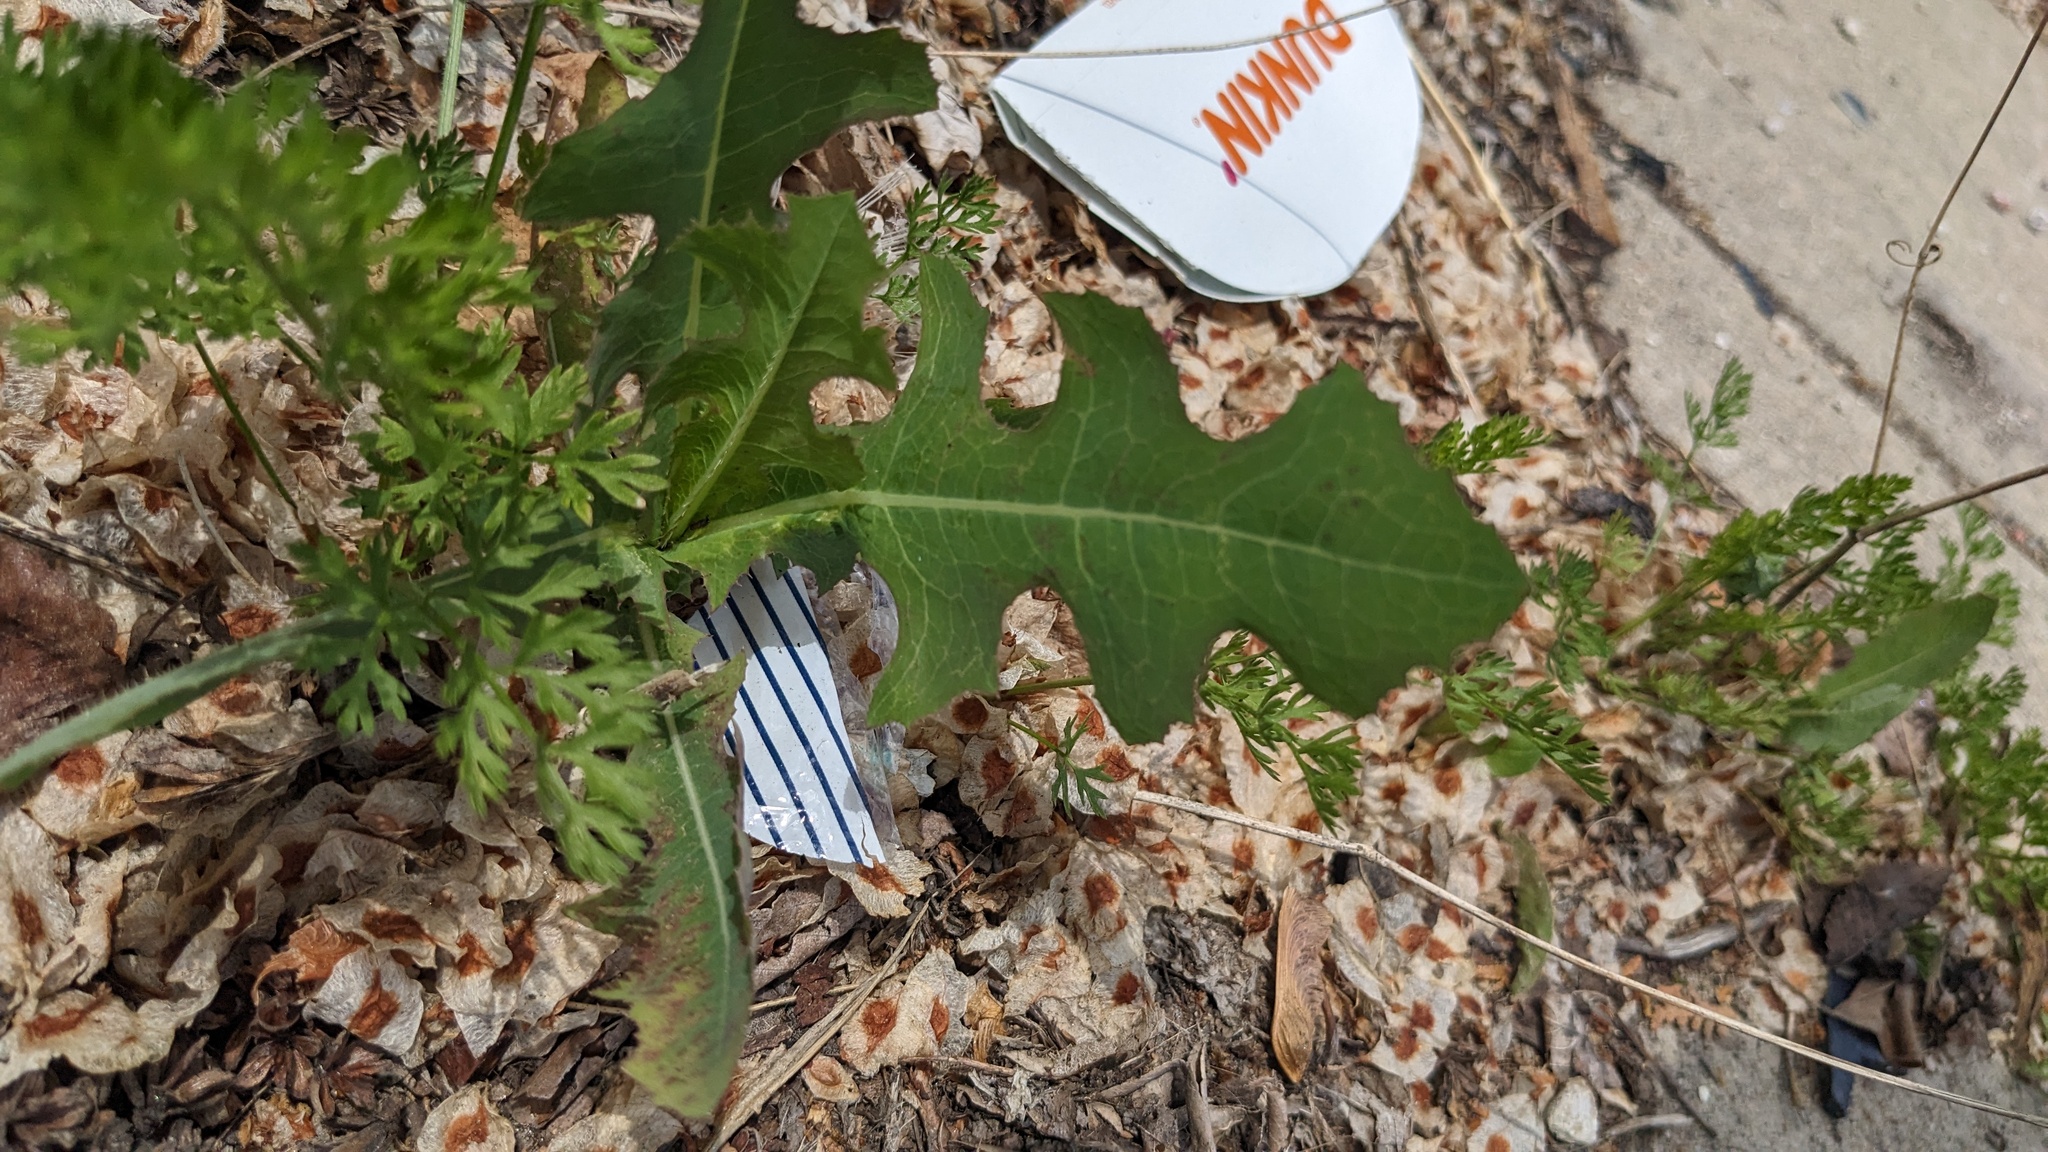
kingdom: Plantae
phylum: Tracheophyta
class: Magnoliopsida
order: Asterales
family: Asteraceae
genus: Lactuca
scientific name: Lactuca serriola
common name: Prickly lettuce
